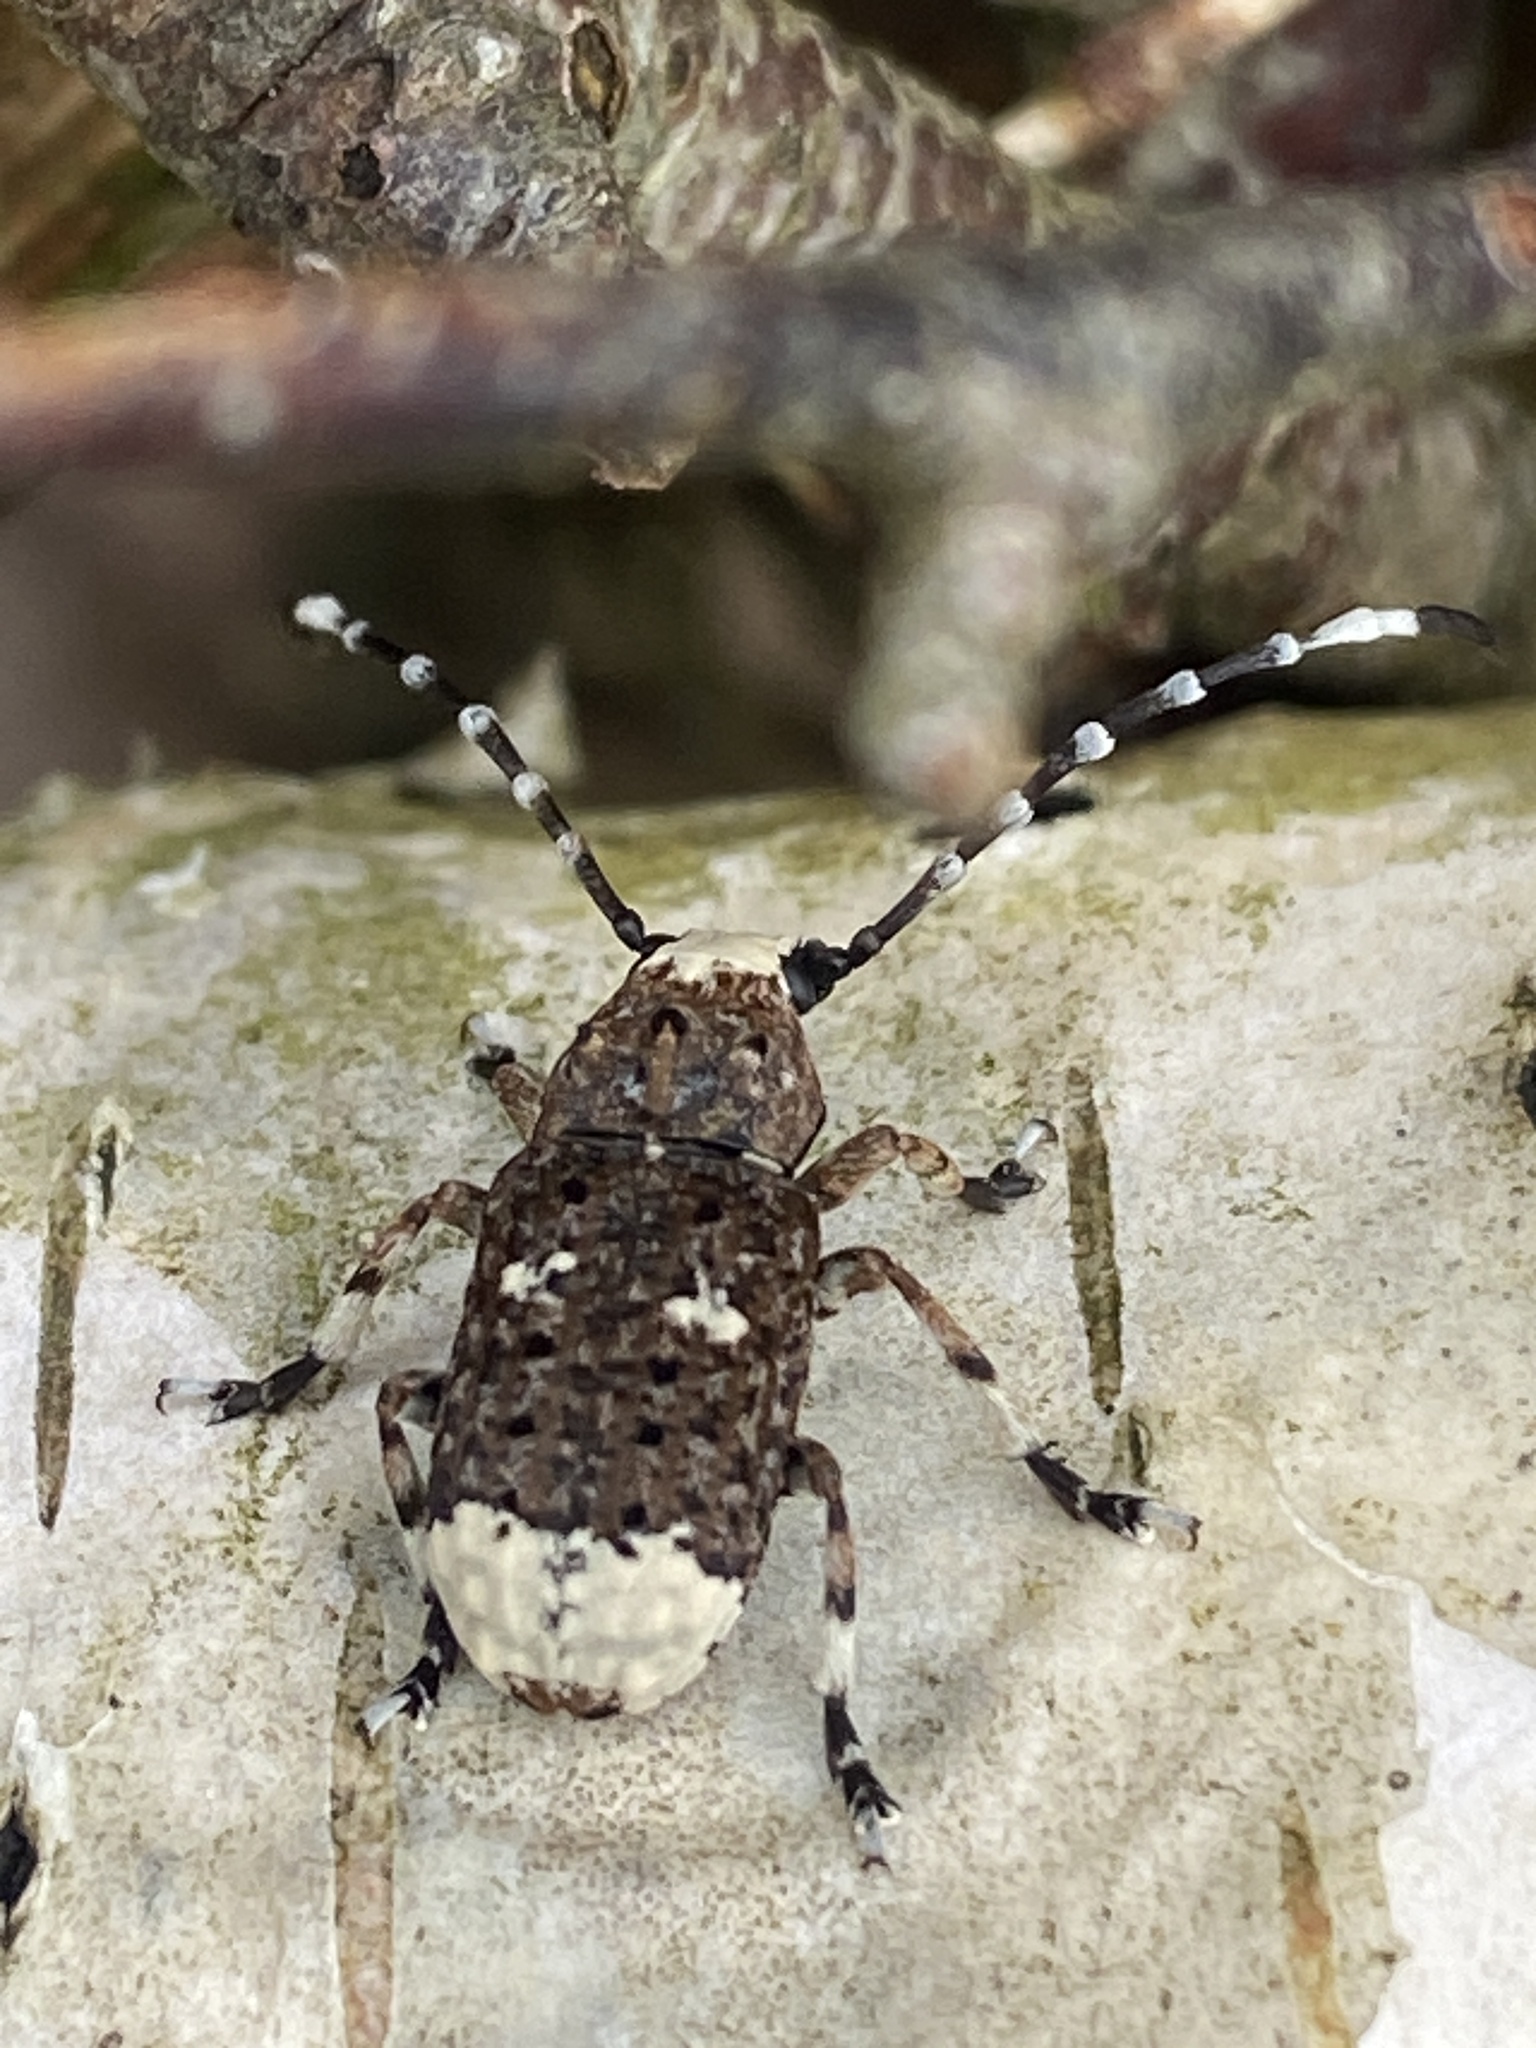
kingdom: Animalia
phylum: Arthropoda
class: Insecta
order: Coleoptera
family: Anthribidae
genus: Platystomos
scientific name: Platystomos albinus
